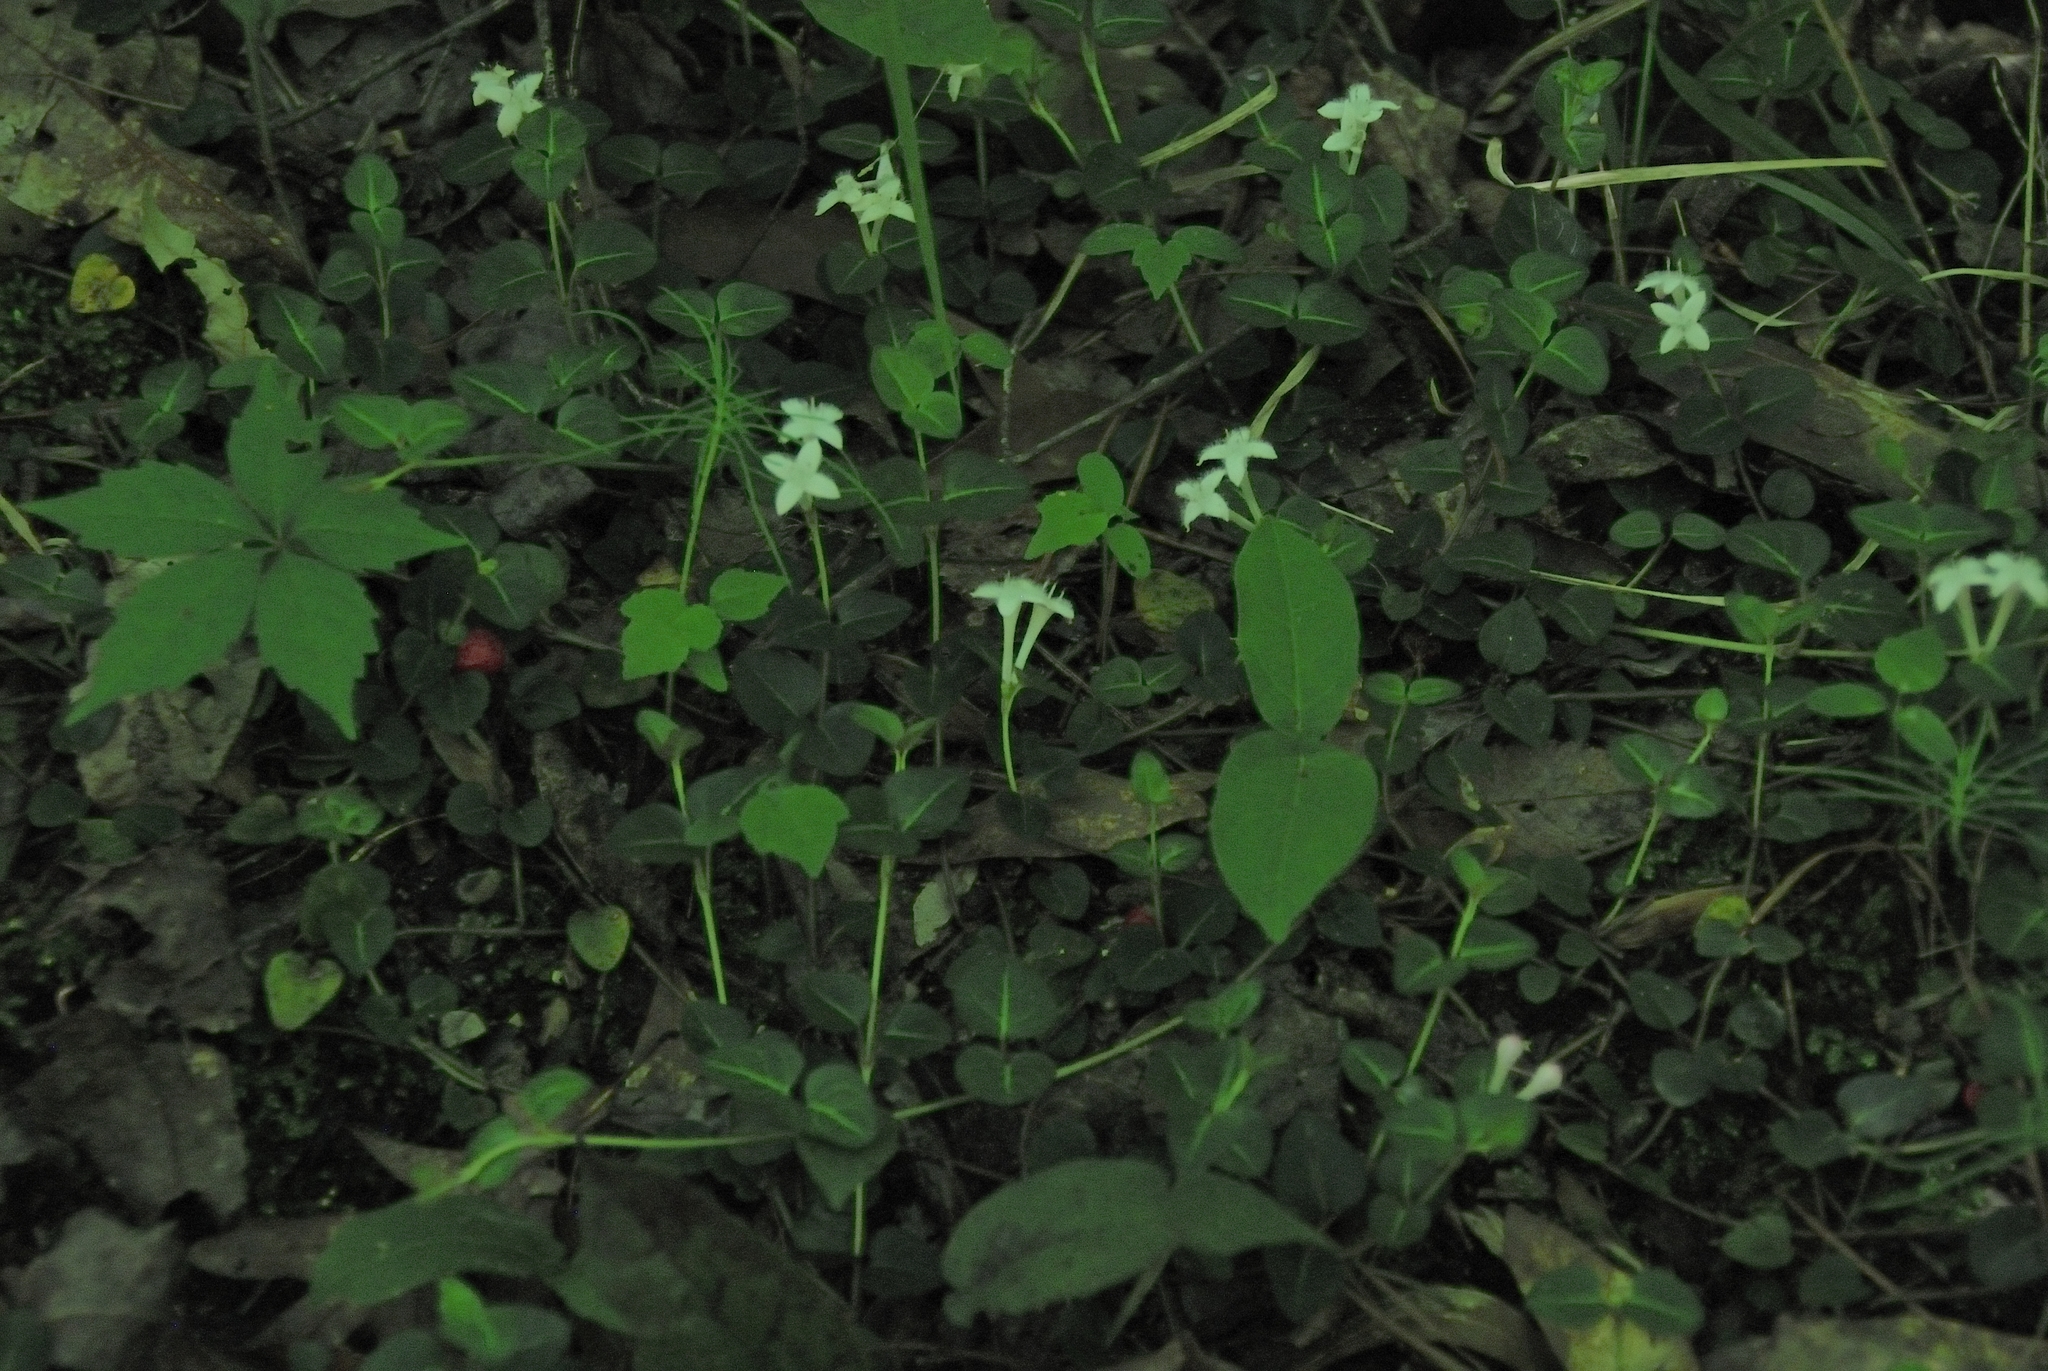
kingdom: Plantae
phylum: Tracheophyta
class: Magnoliopsida
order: Gentianales
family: Rubiaceae
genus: Mitchella
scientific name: Mitchella repens
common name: Partridge-berry
